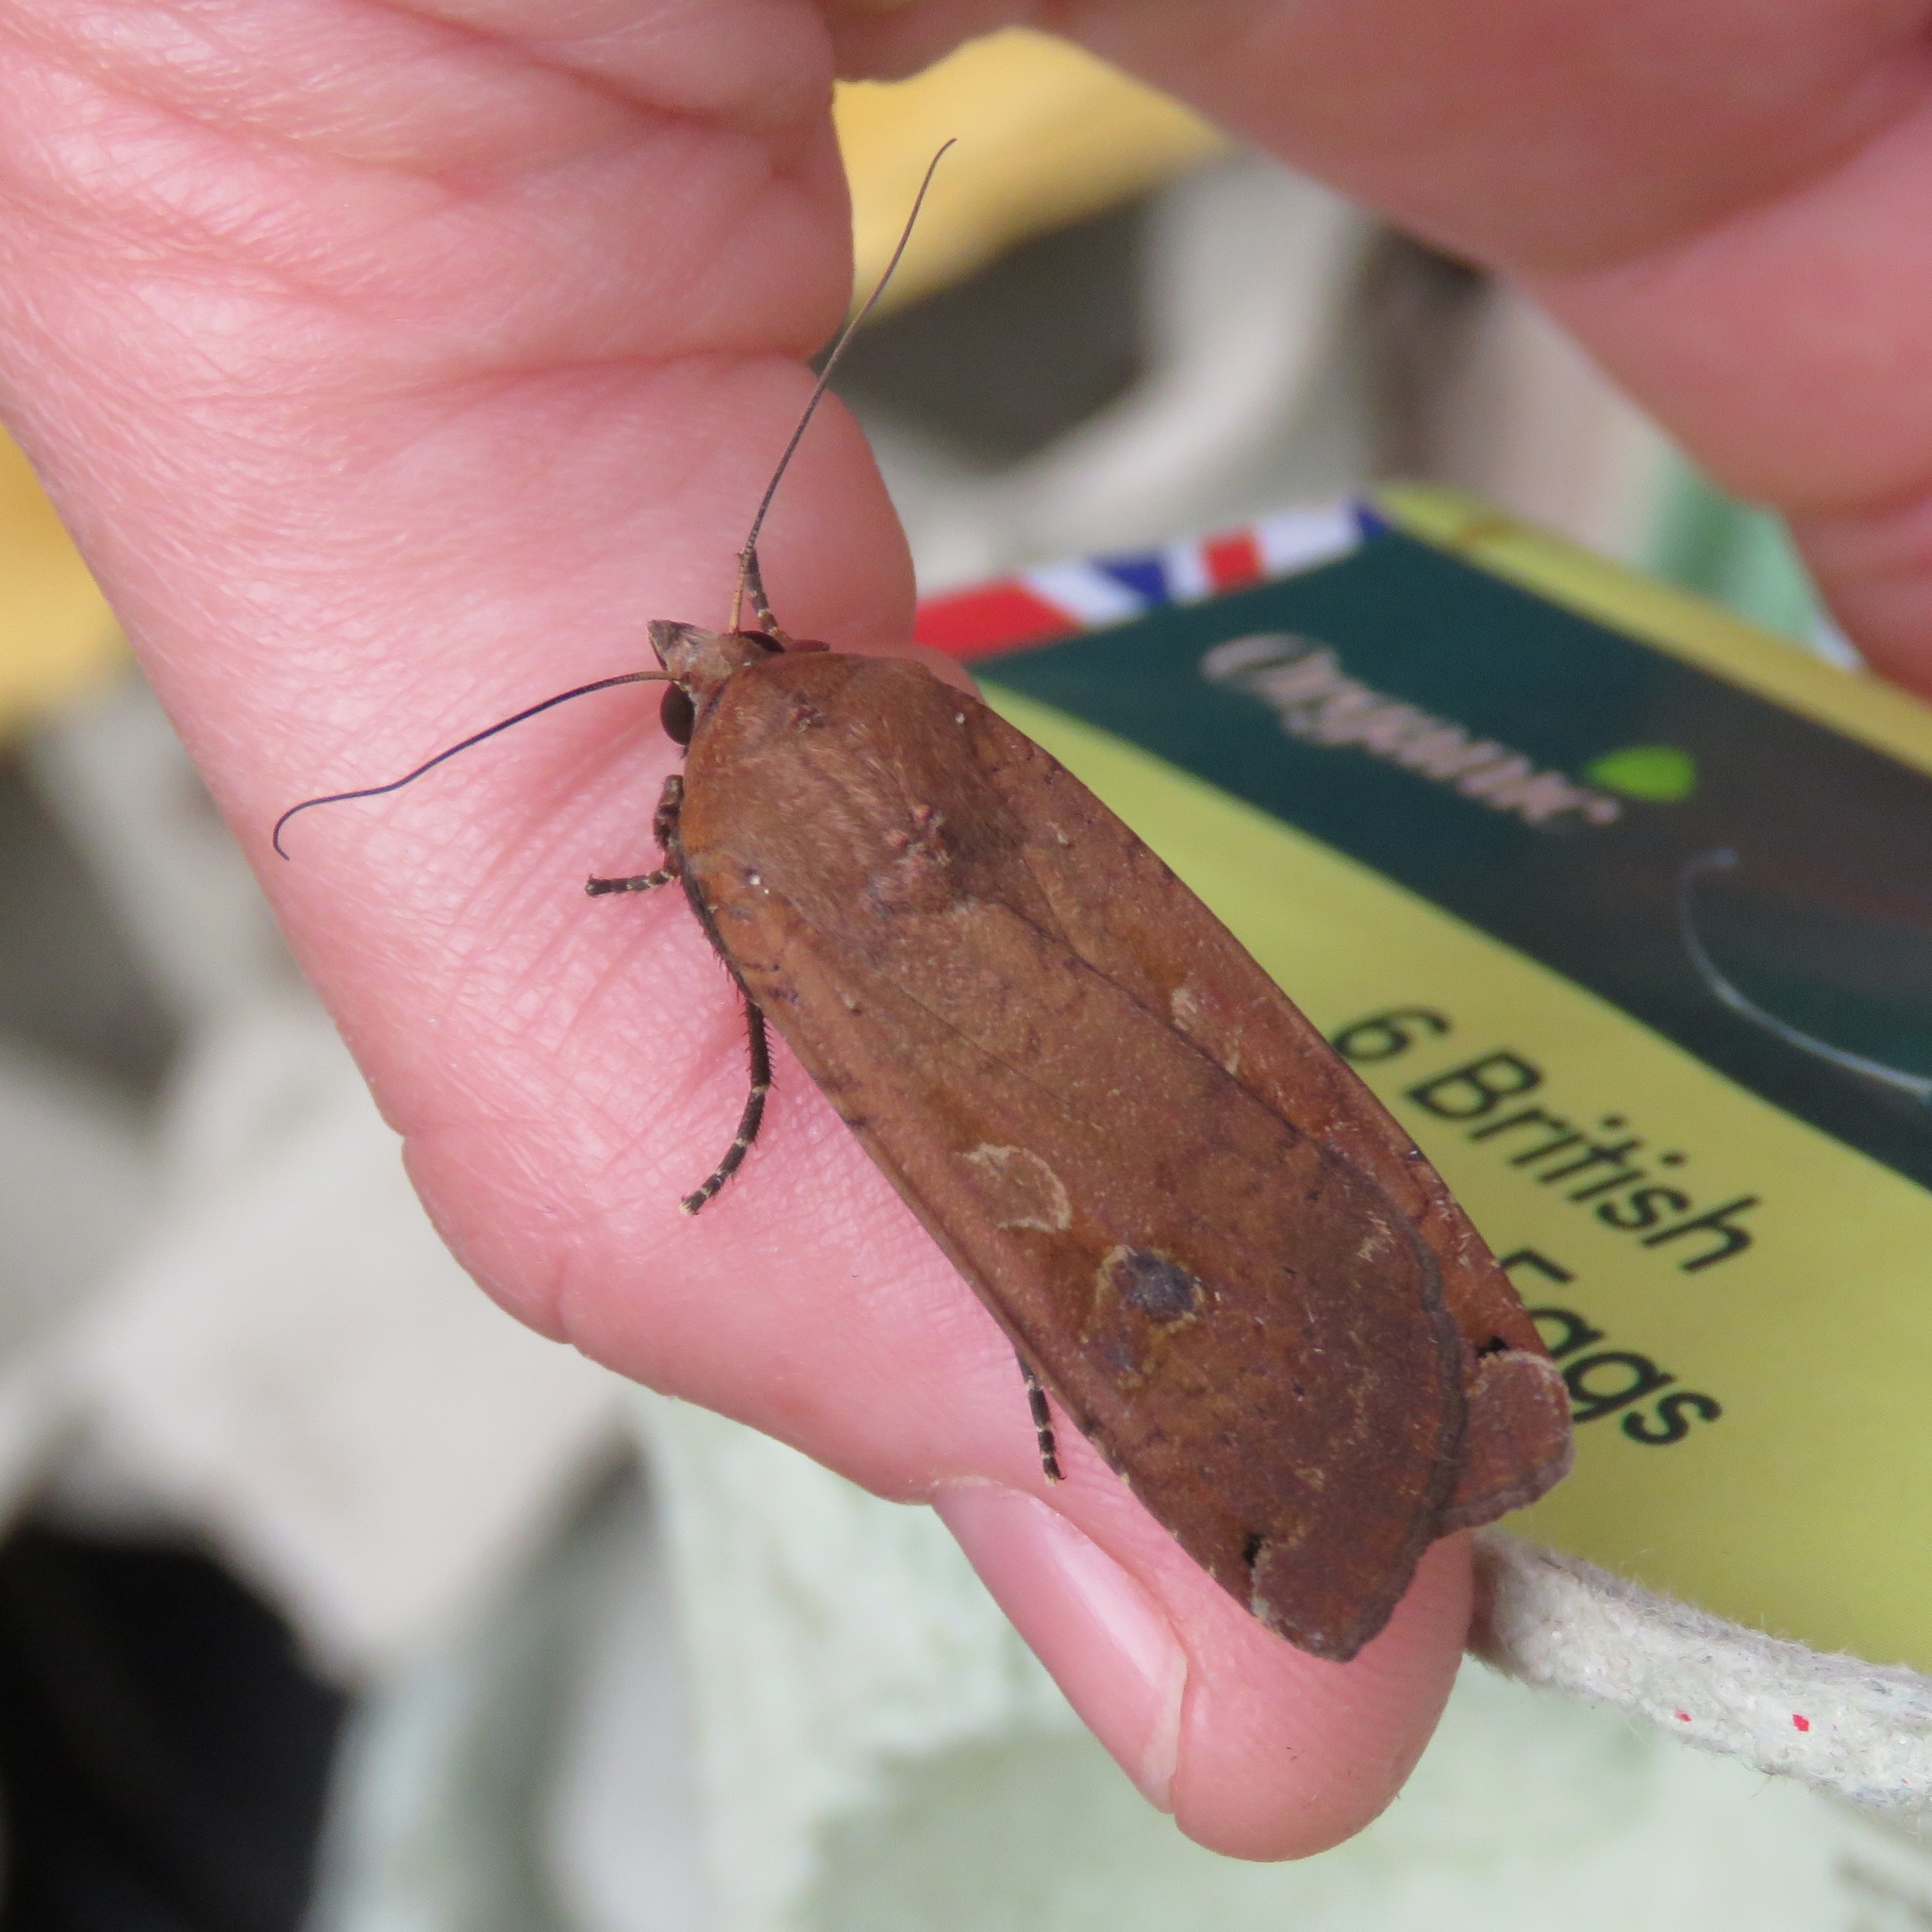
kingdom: Animalia
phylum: Arthropoda
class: Insecta
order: Lepidoptera
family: Noctuidae
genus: Noctua
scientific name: Noctua pronuba
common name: Large yellow underwing
